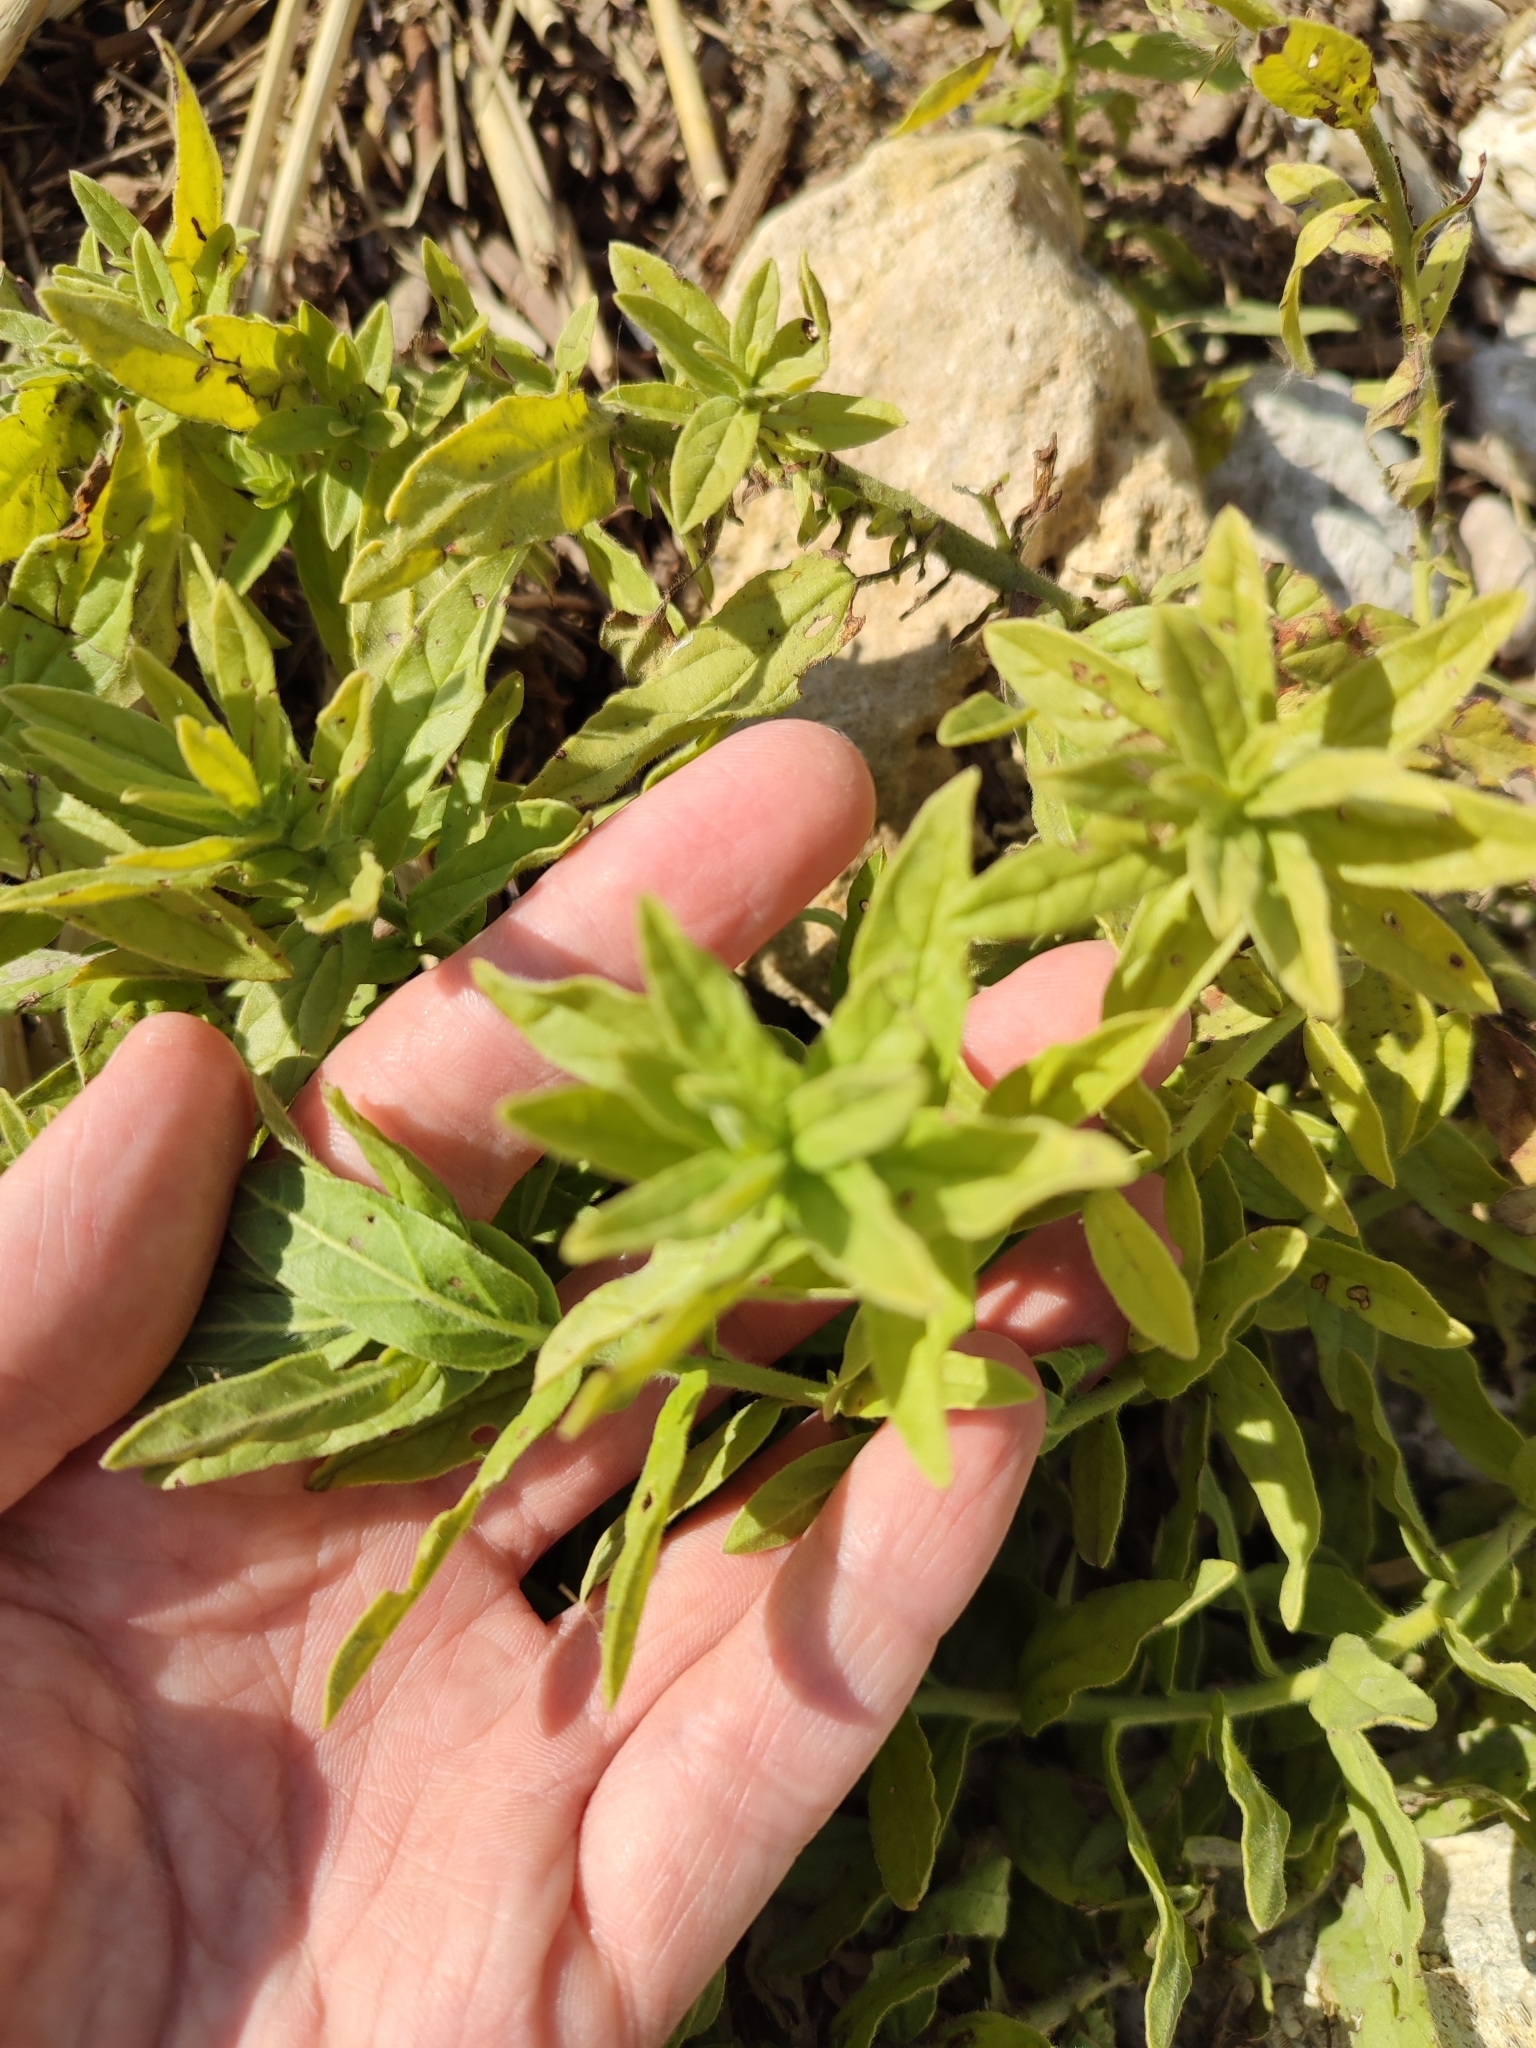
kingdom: Plantae
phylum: Tracheophyta
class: Magnoliopsida
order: Boraginales
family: Heliotropiaceae
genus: Tournefortia
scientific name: Tournefortia sibirica
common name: Siberian sea rosemary
